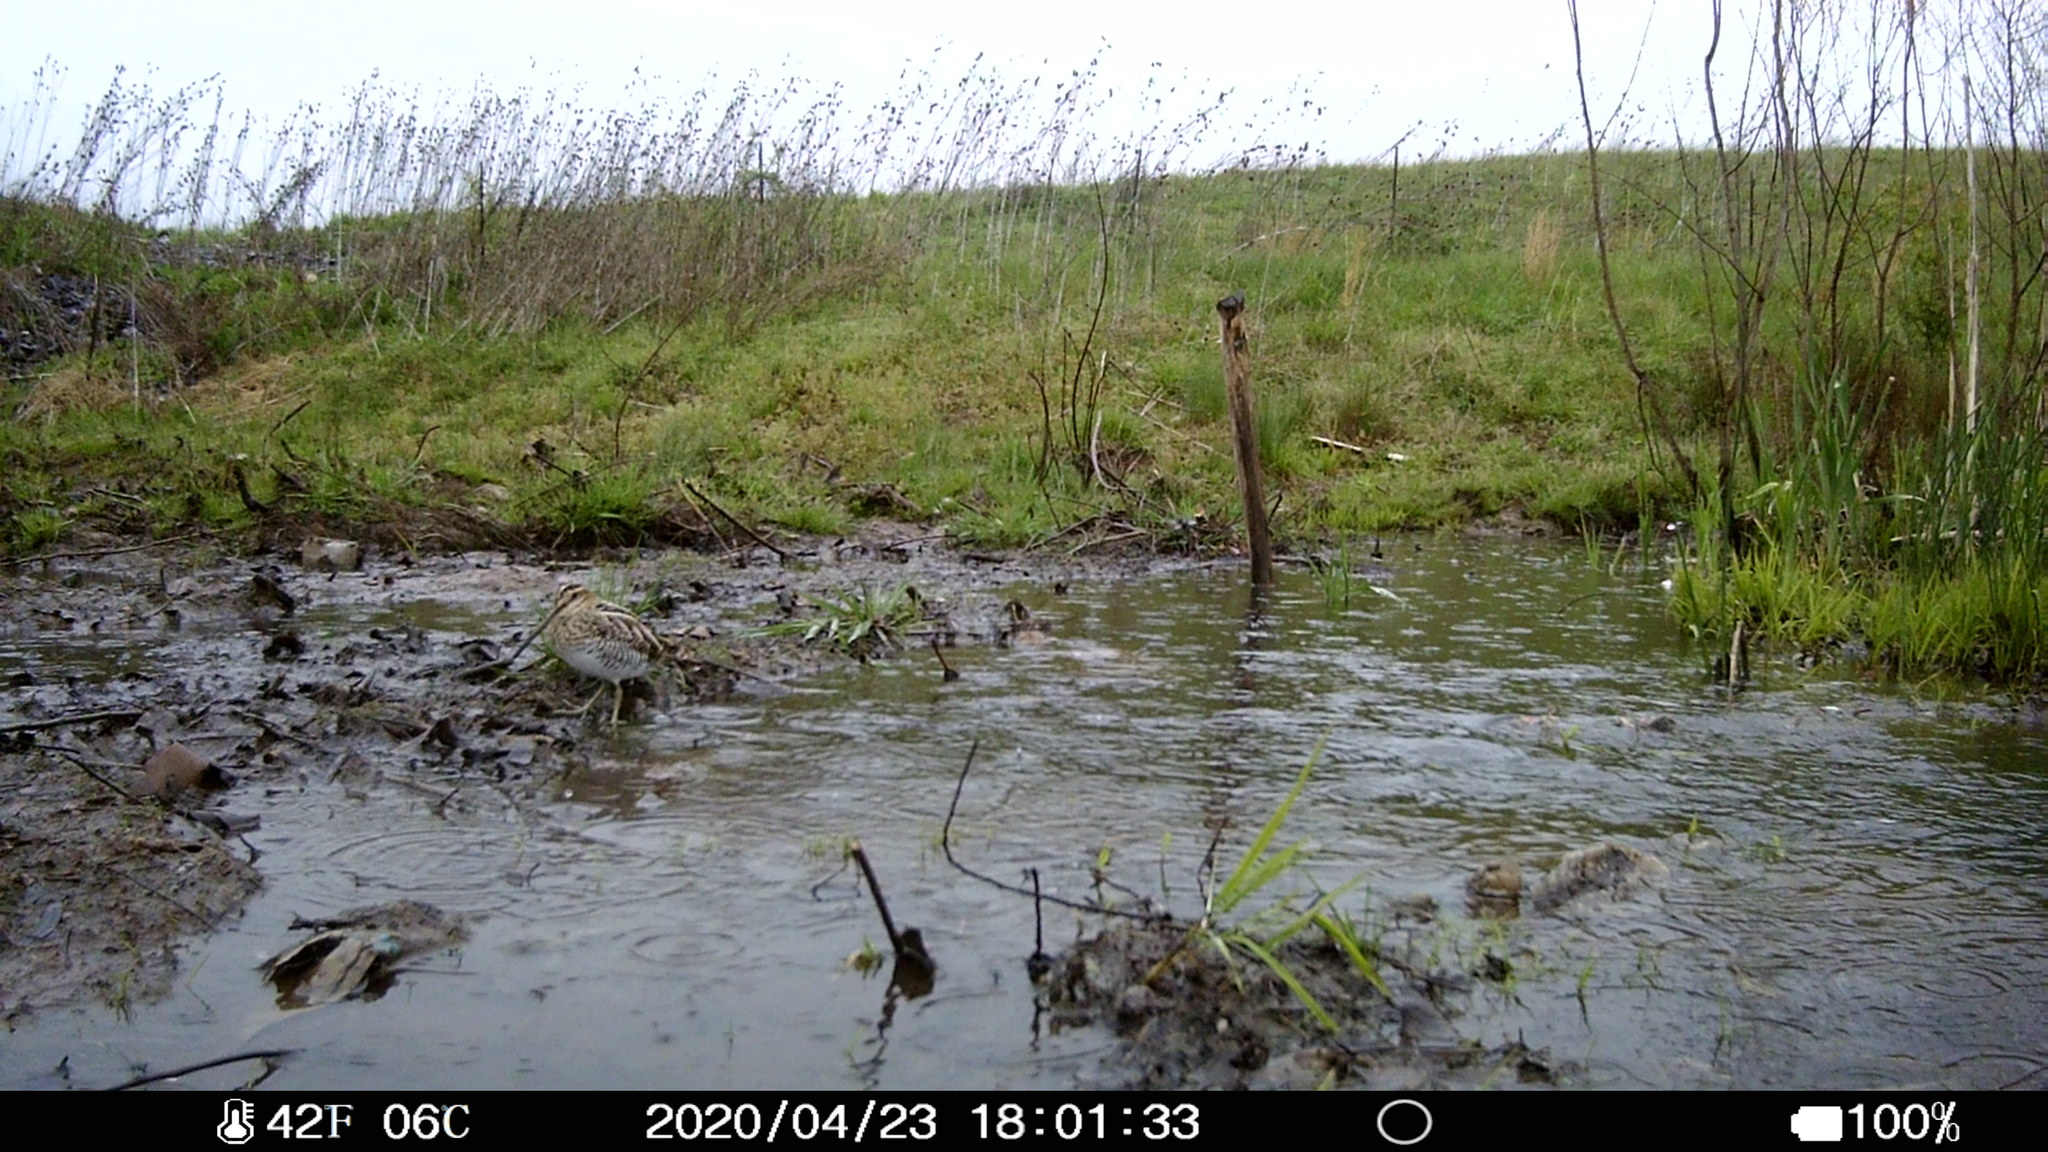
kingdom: Animalia
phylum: Chordata
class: Aves
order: Charadriiformes
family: Scolopacidae
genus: Gallinago
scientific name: Gallinago delicata
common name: Wilson's snipe
